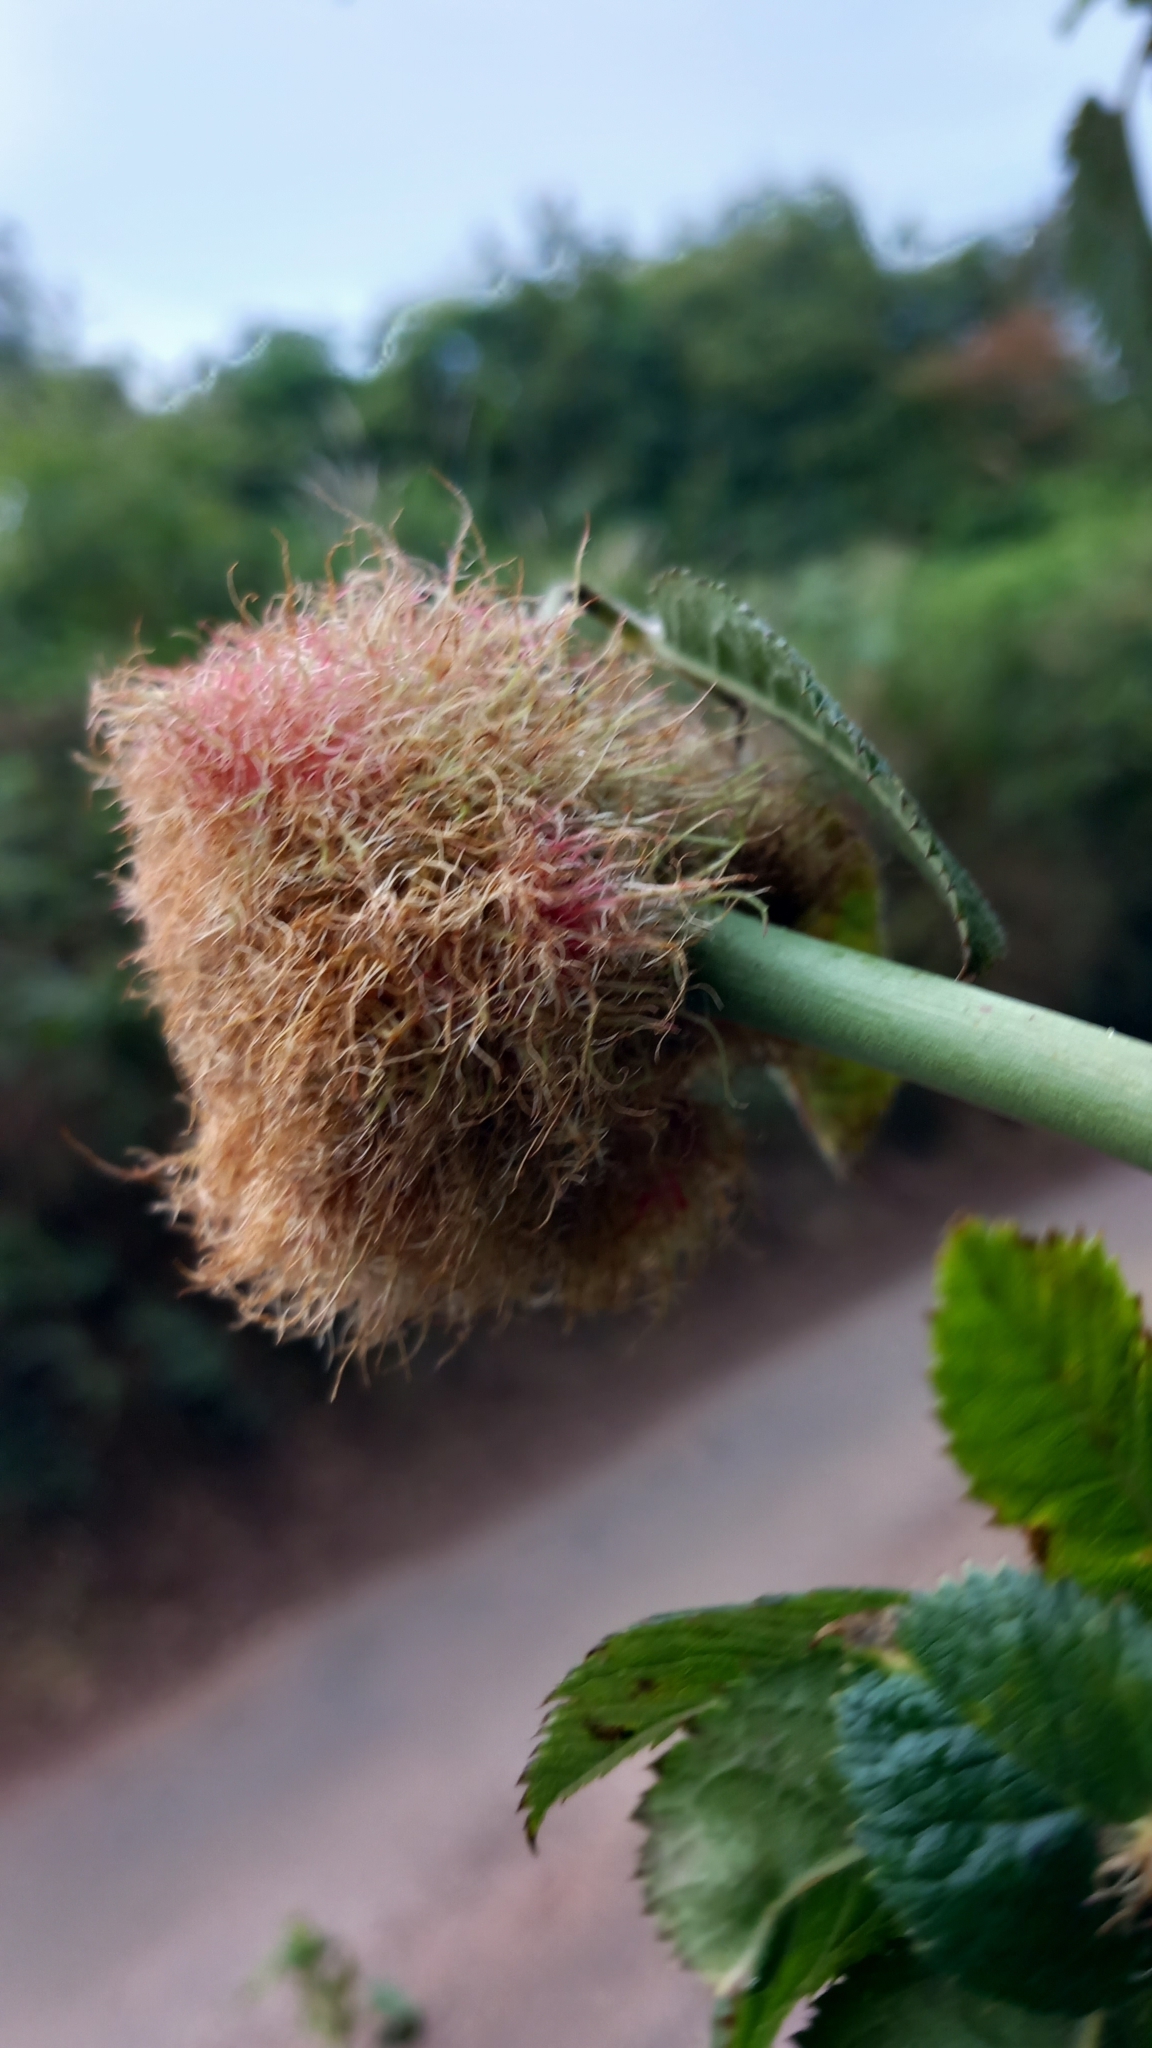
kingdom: Animalia
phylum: Arthropoda
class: Insecta
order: Hymenoptera
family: Cynipidae
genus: Diplolepis
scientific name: Diplolepis rosae
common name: Bedeguar gall
